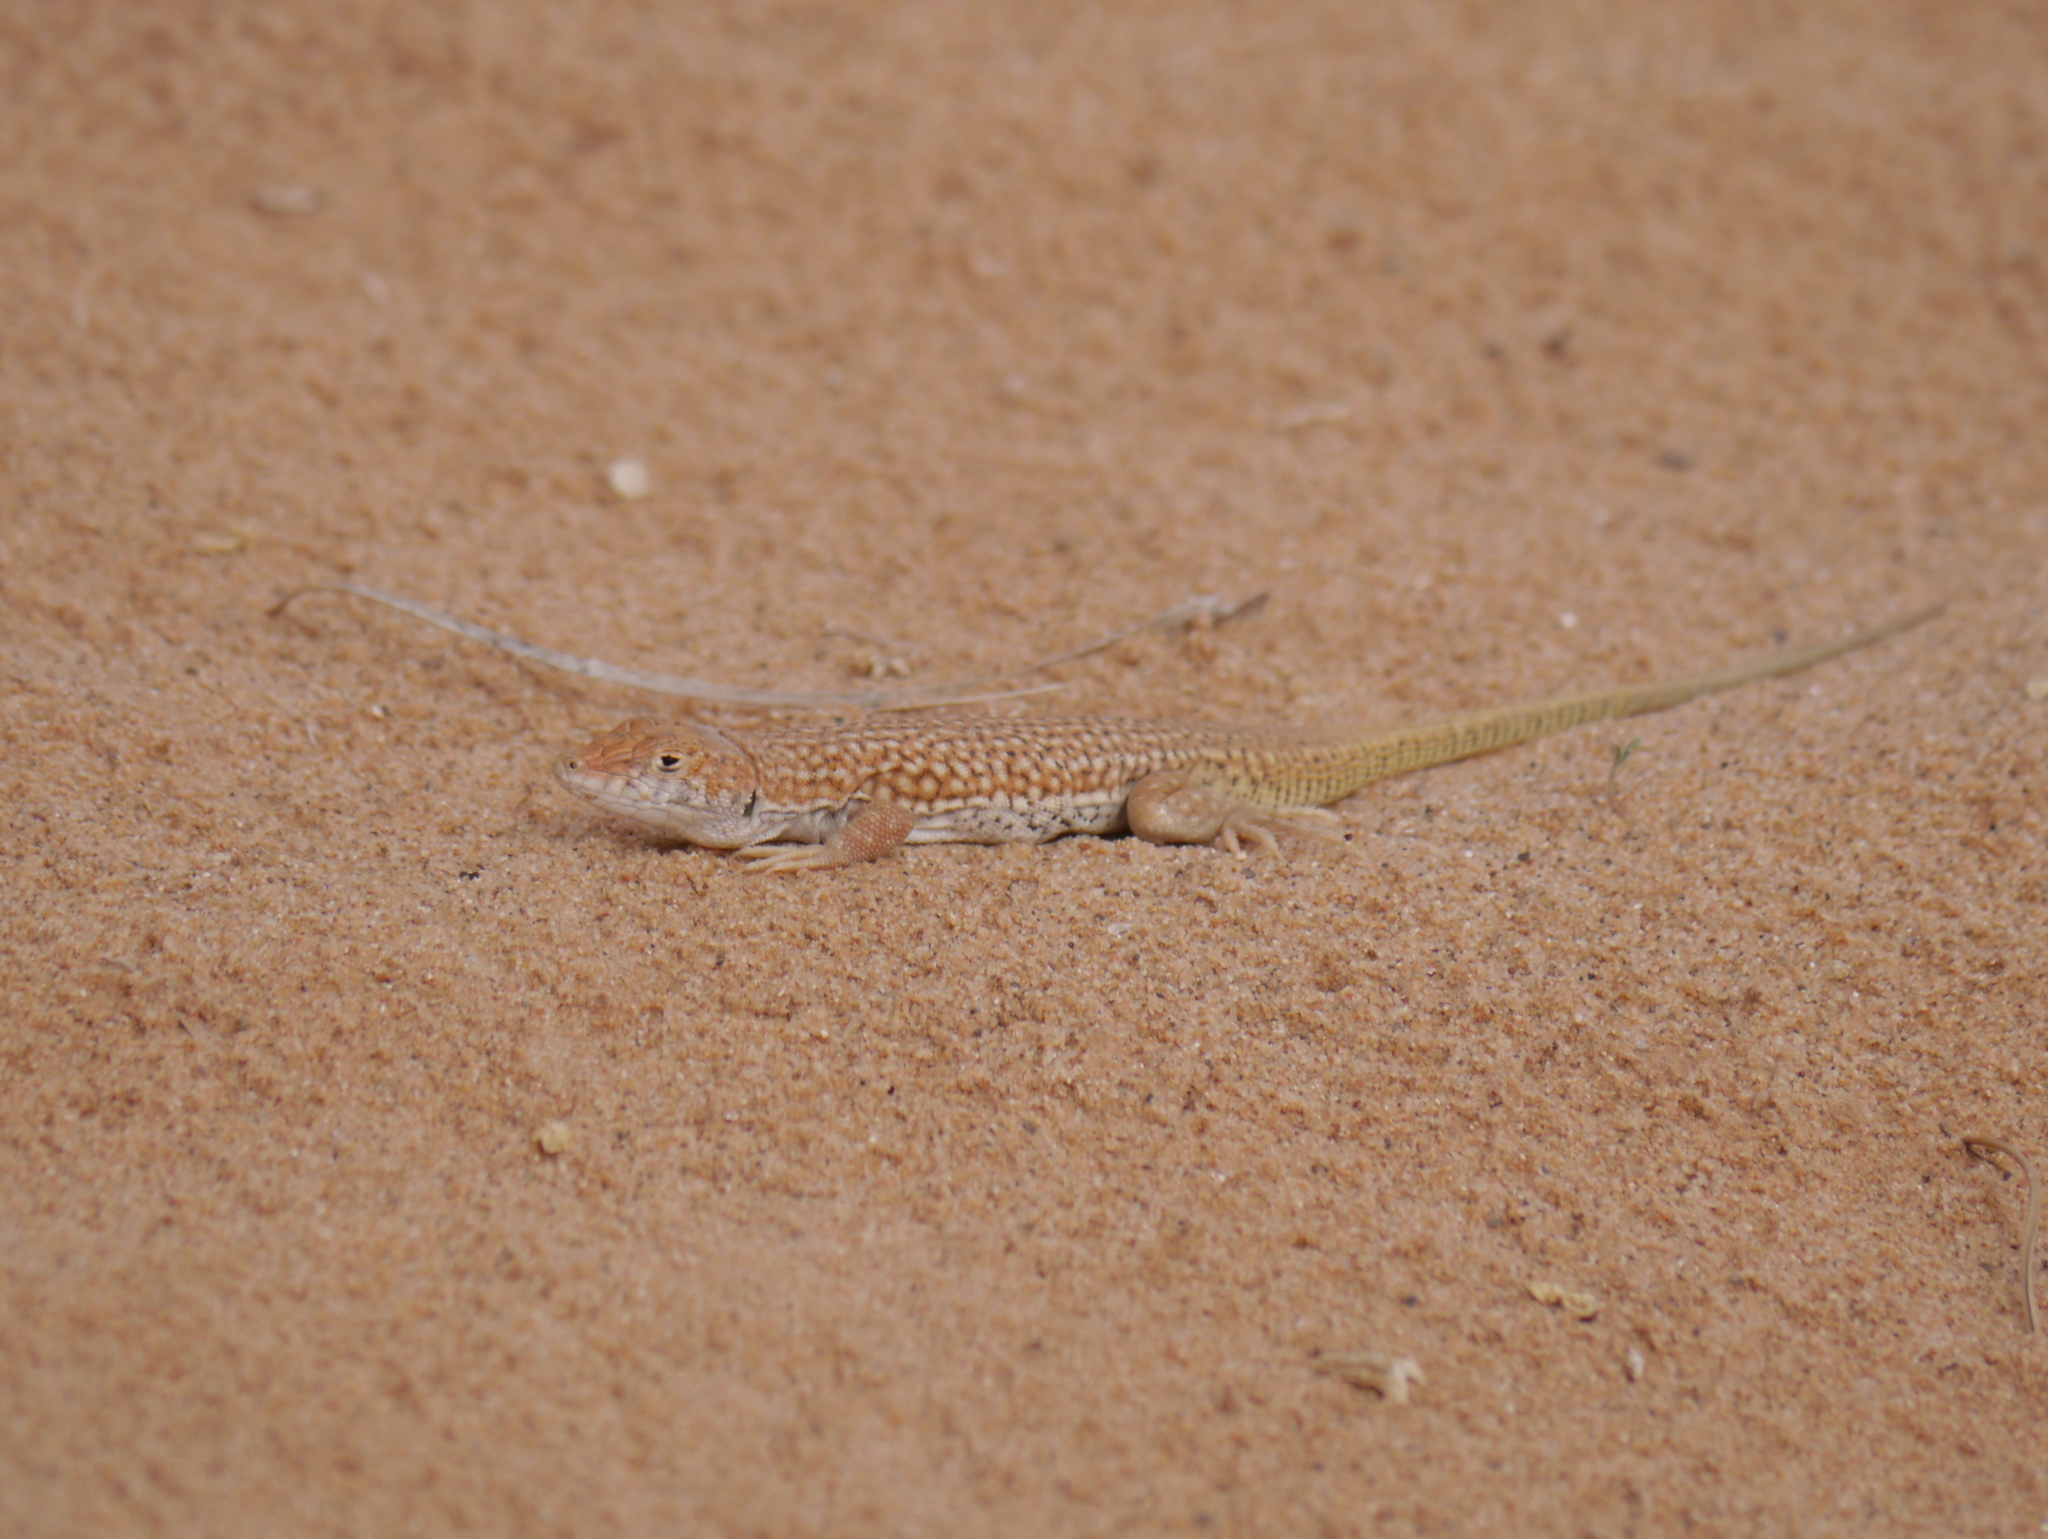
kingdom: Animalia
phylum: Chordata
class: Squamata
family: Lacertidae
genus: Acanthodactylus
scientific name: Acanthodactylus dumerilii
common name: Duméril's fringe-fingered lizard
